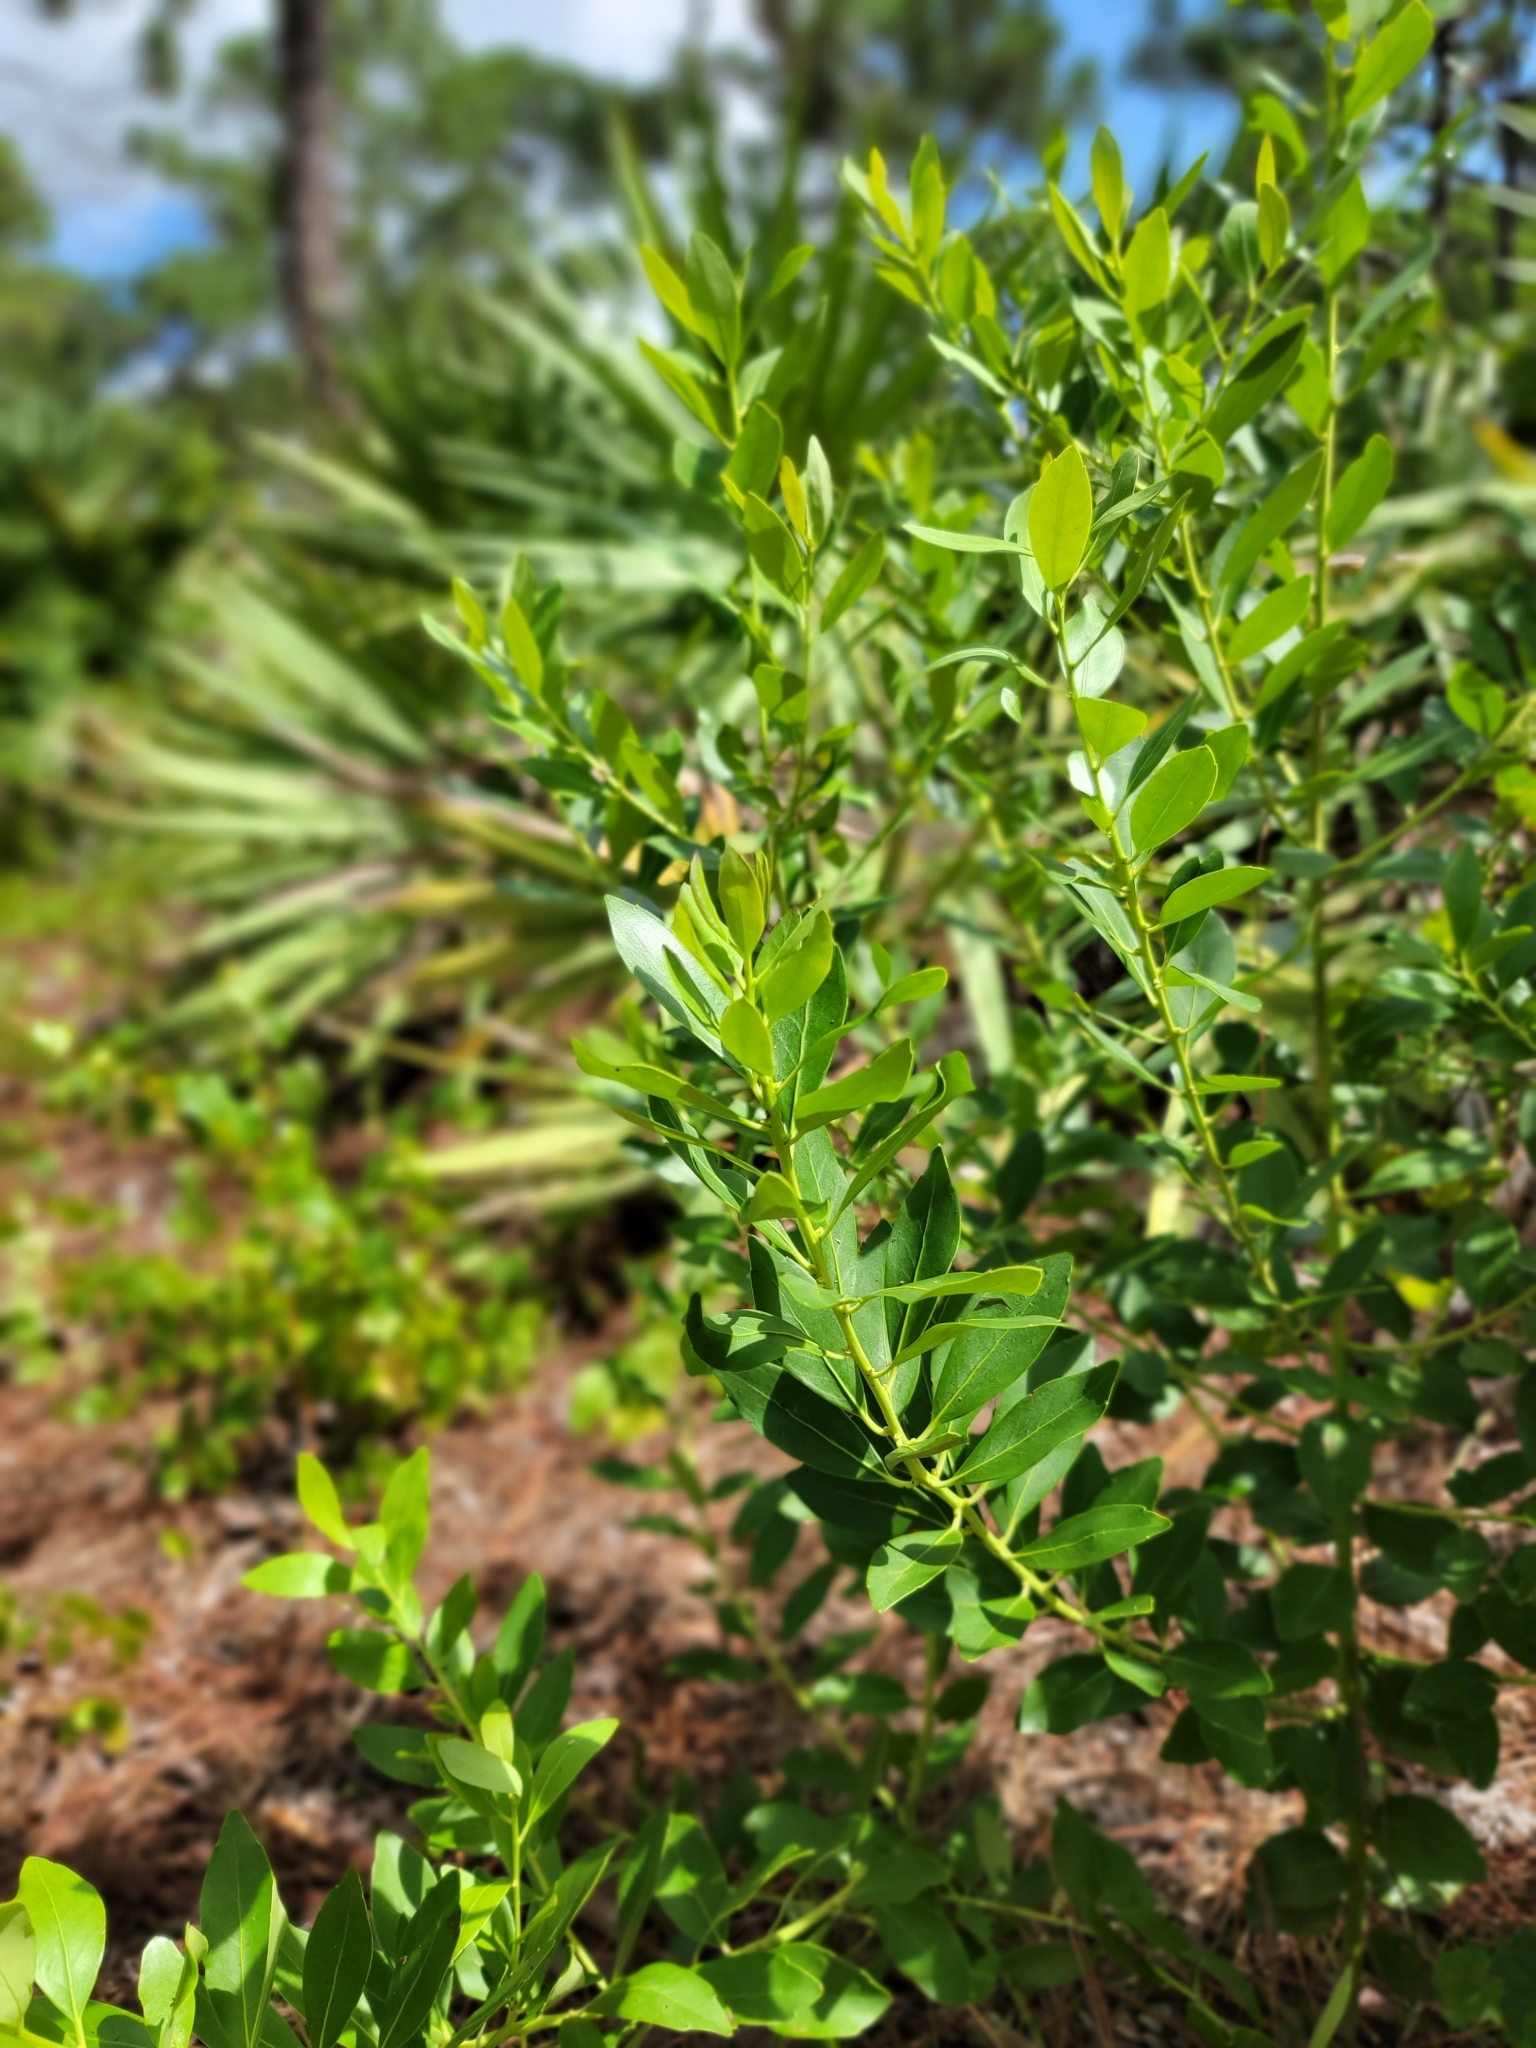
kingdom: Plantae
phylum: Tracheophyta
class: Magnoliopsida
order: Aquifoliales
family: Aquifoliaceae
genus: Ilex
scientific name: Ilex glabra
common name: Bitter gallberry
